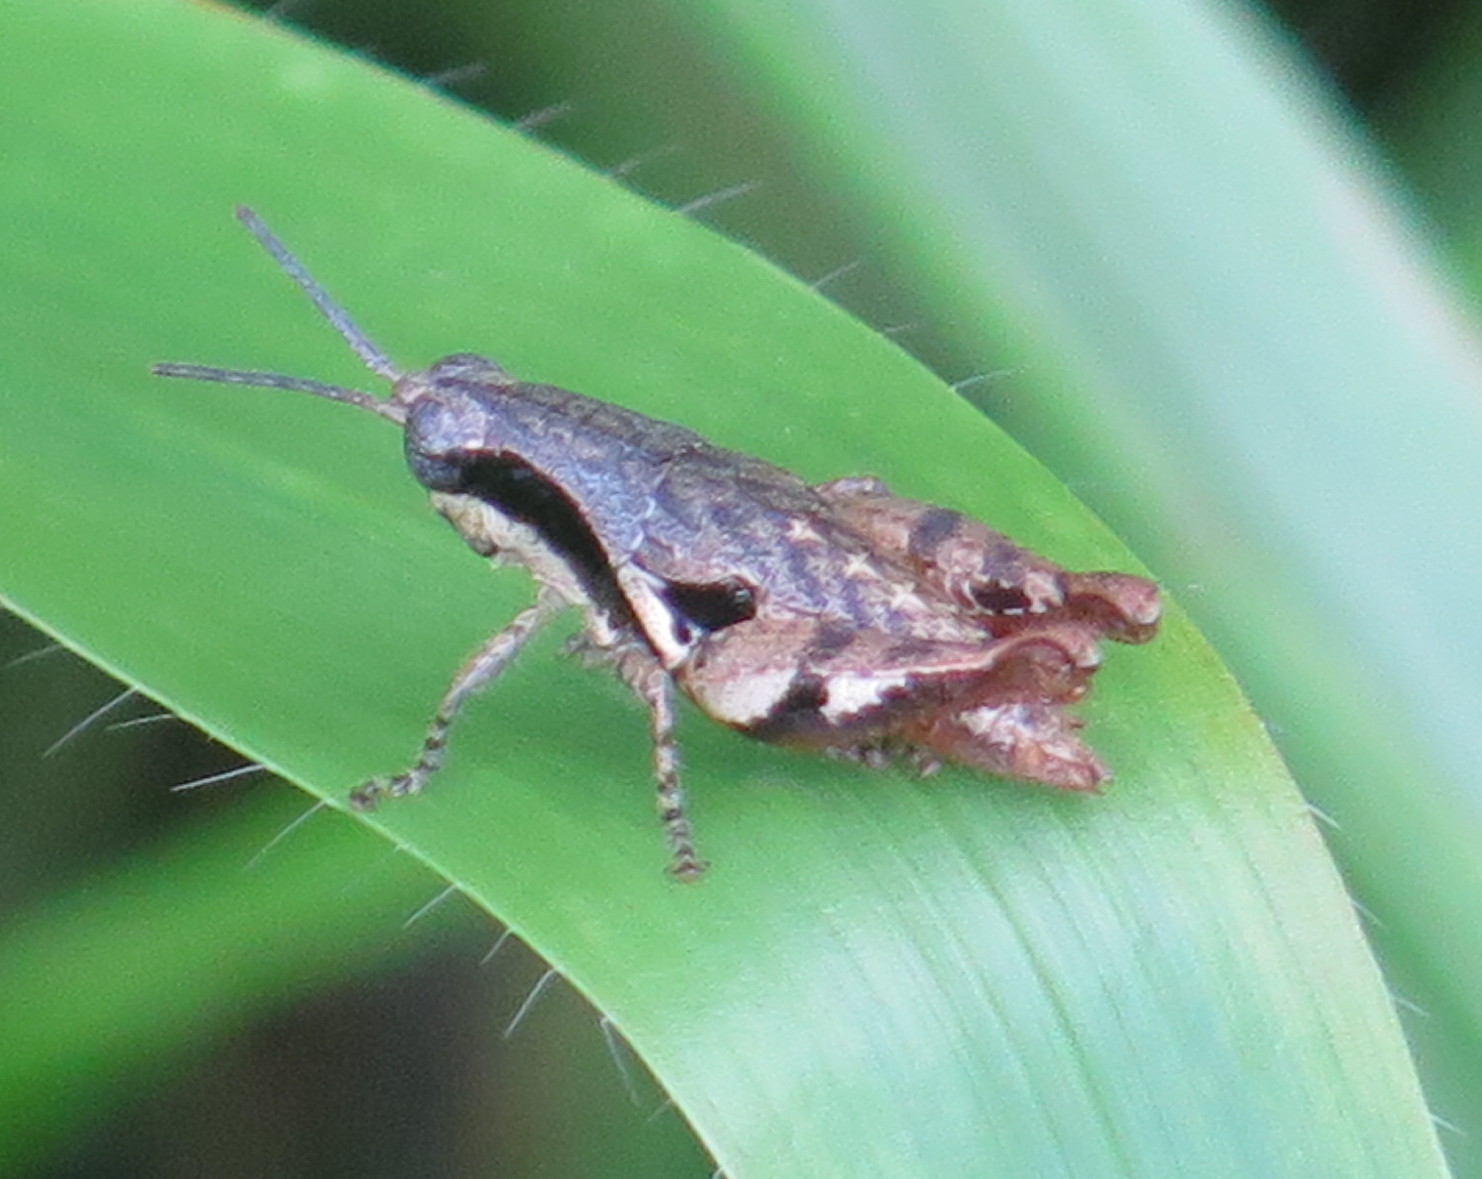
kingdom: Animalia
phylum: Arthropoda
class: Insecta
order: Orthoptera
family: Acrididae
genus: Eujivarus
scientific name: Eujivarus meridionalis
